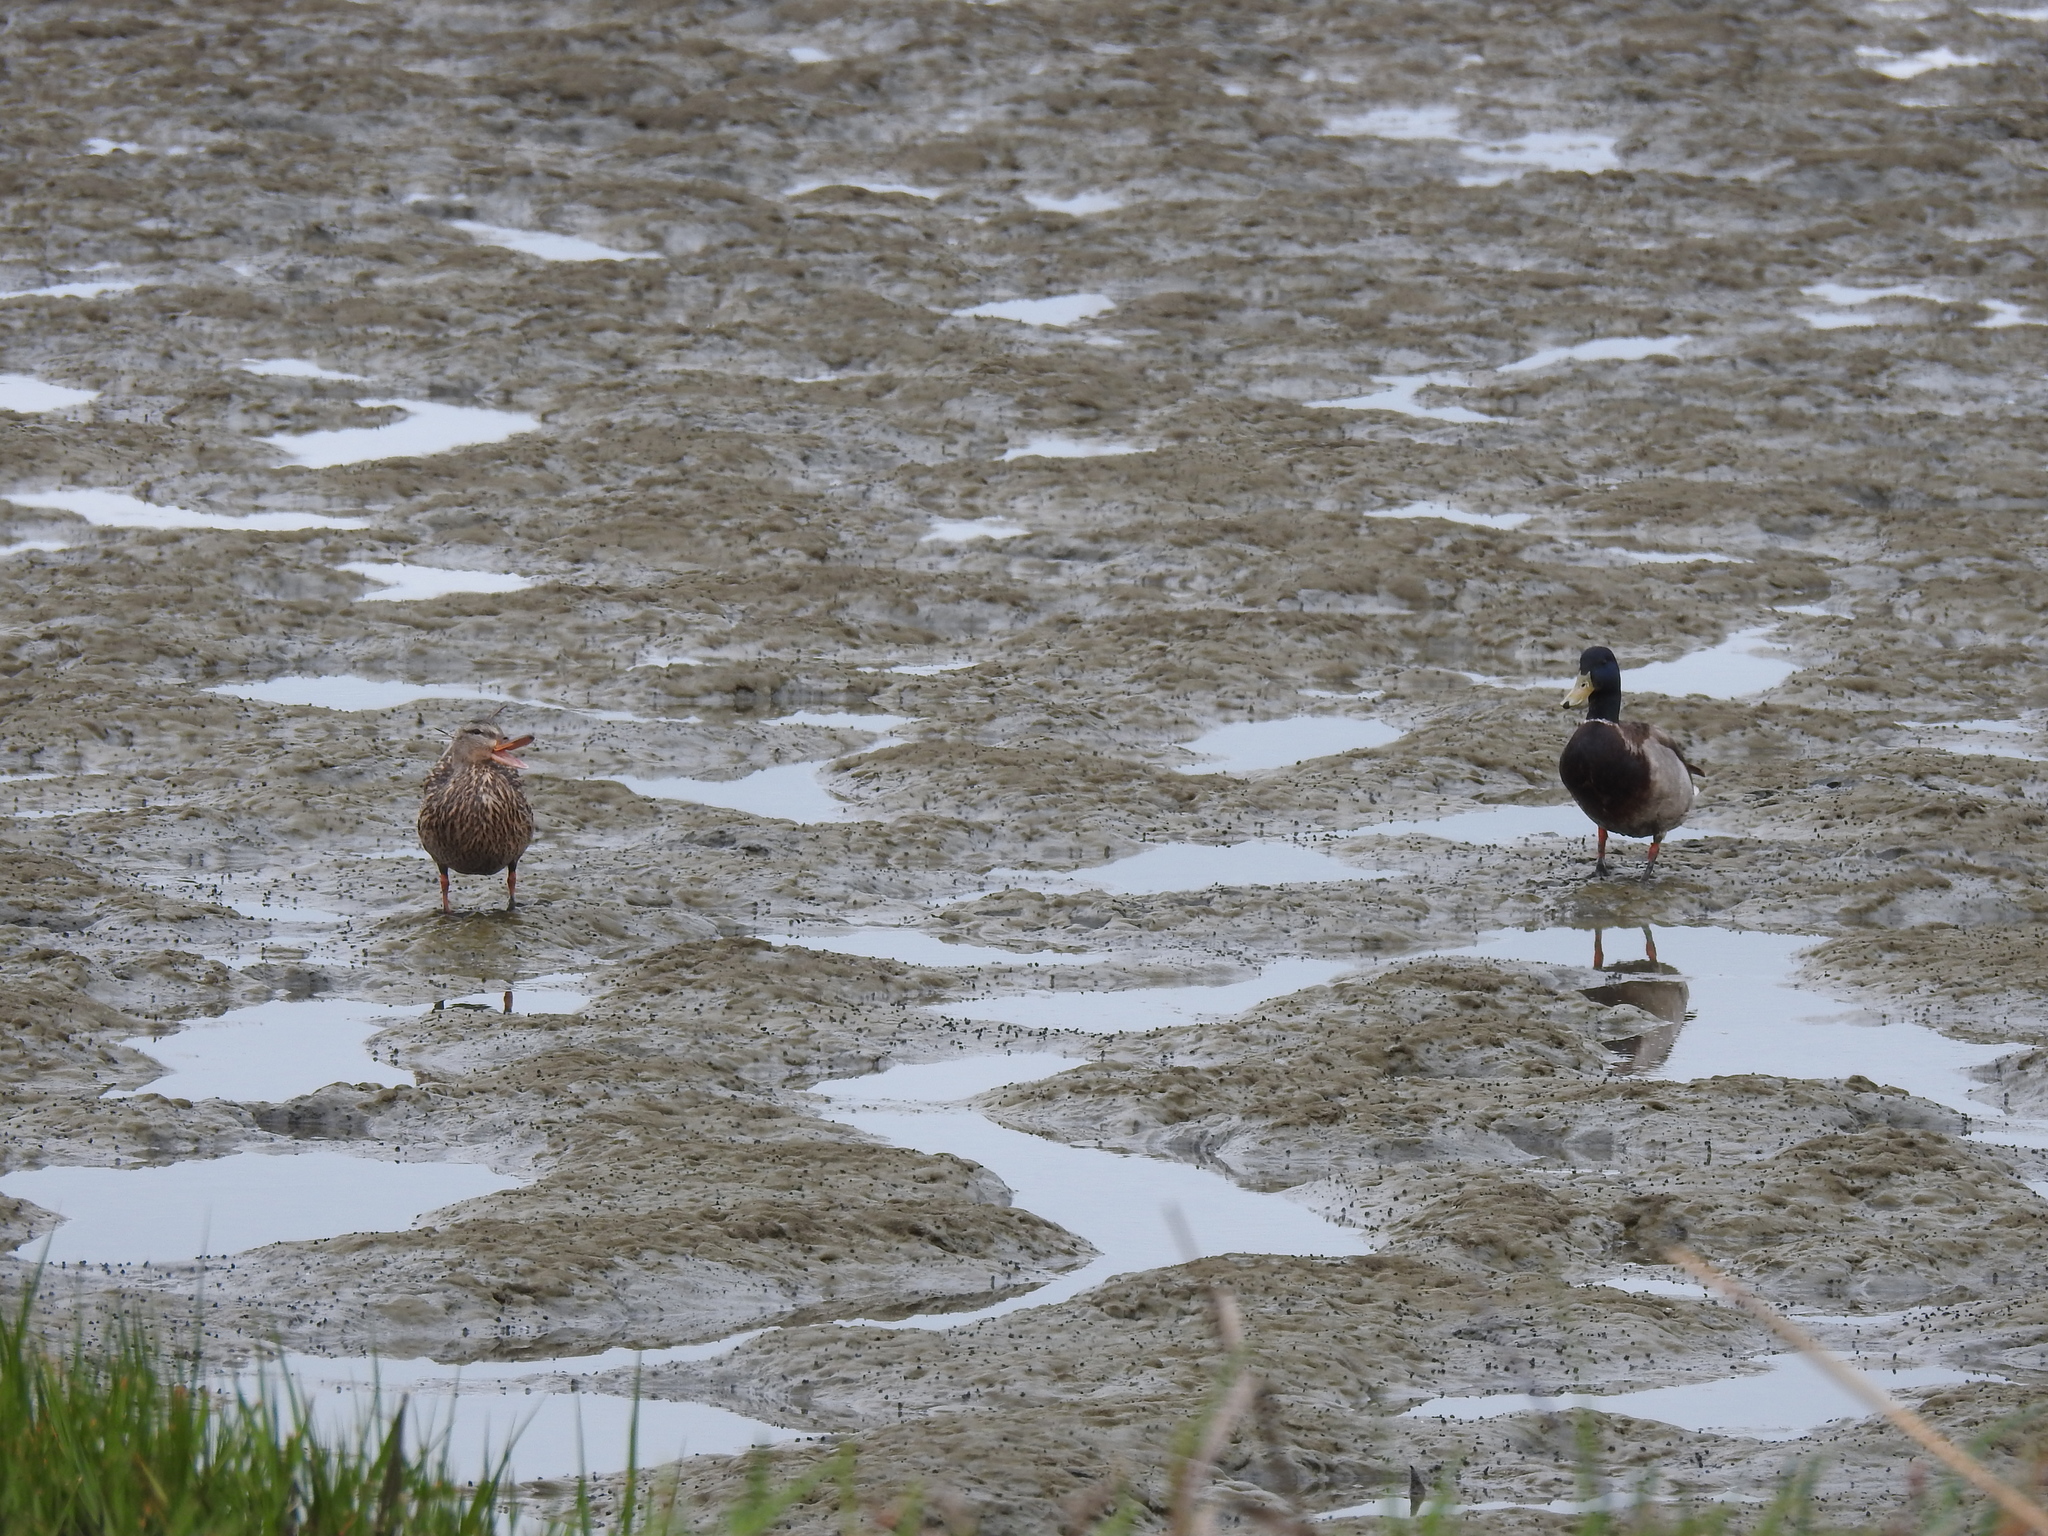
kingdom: Animalia
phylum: Chordata
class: Aves
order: Anseriformes
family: Anatidae
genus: Anas
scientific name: Anas platyrhynchos
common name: Mallard
